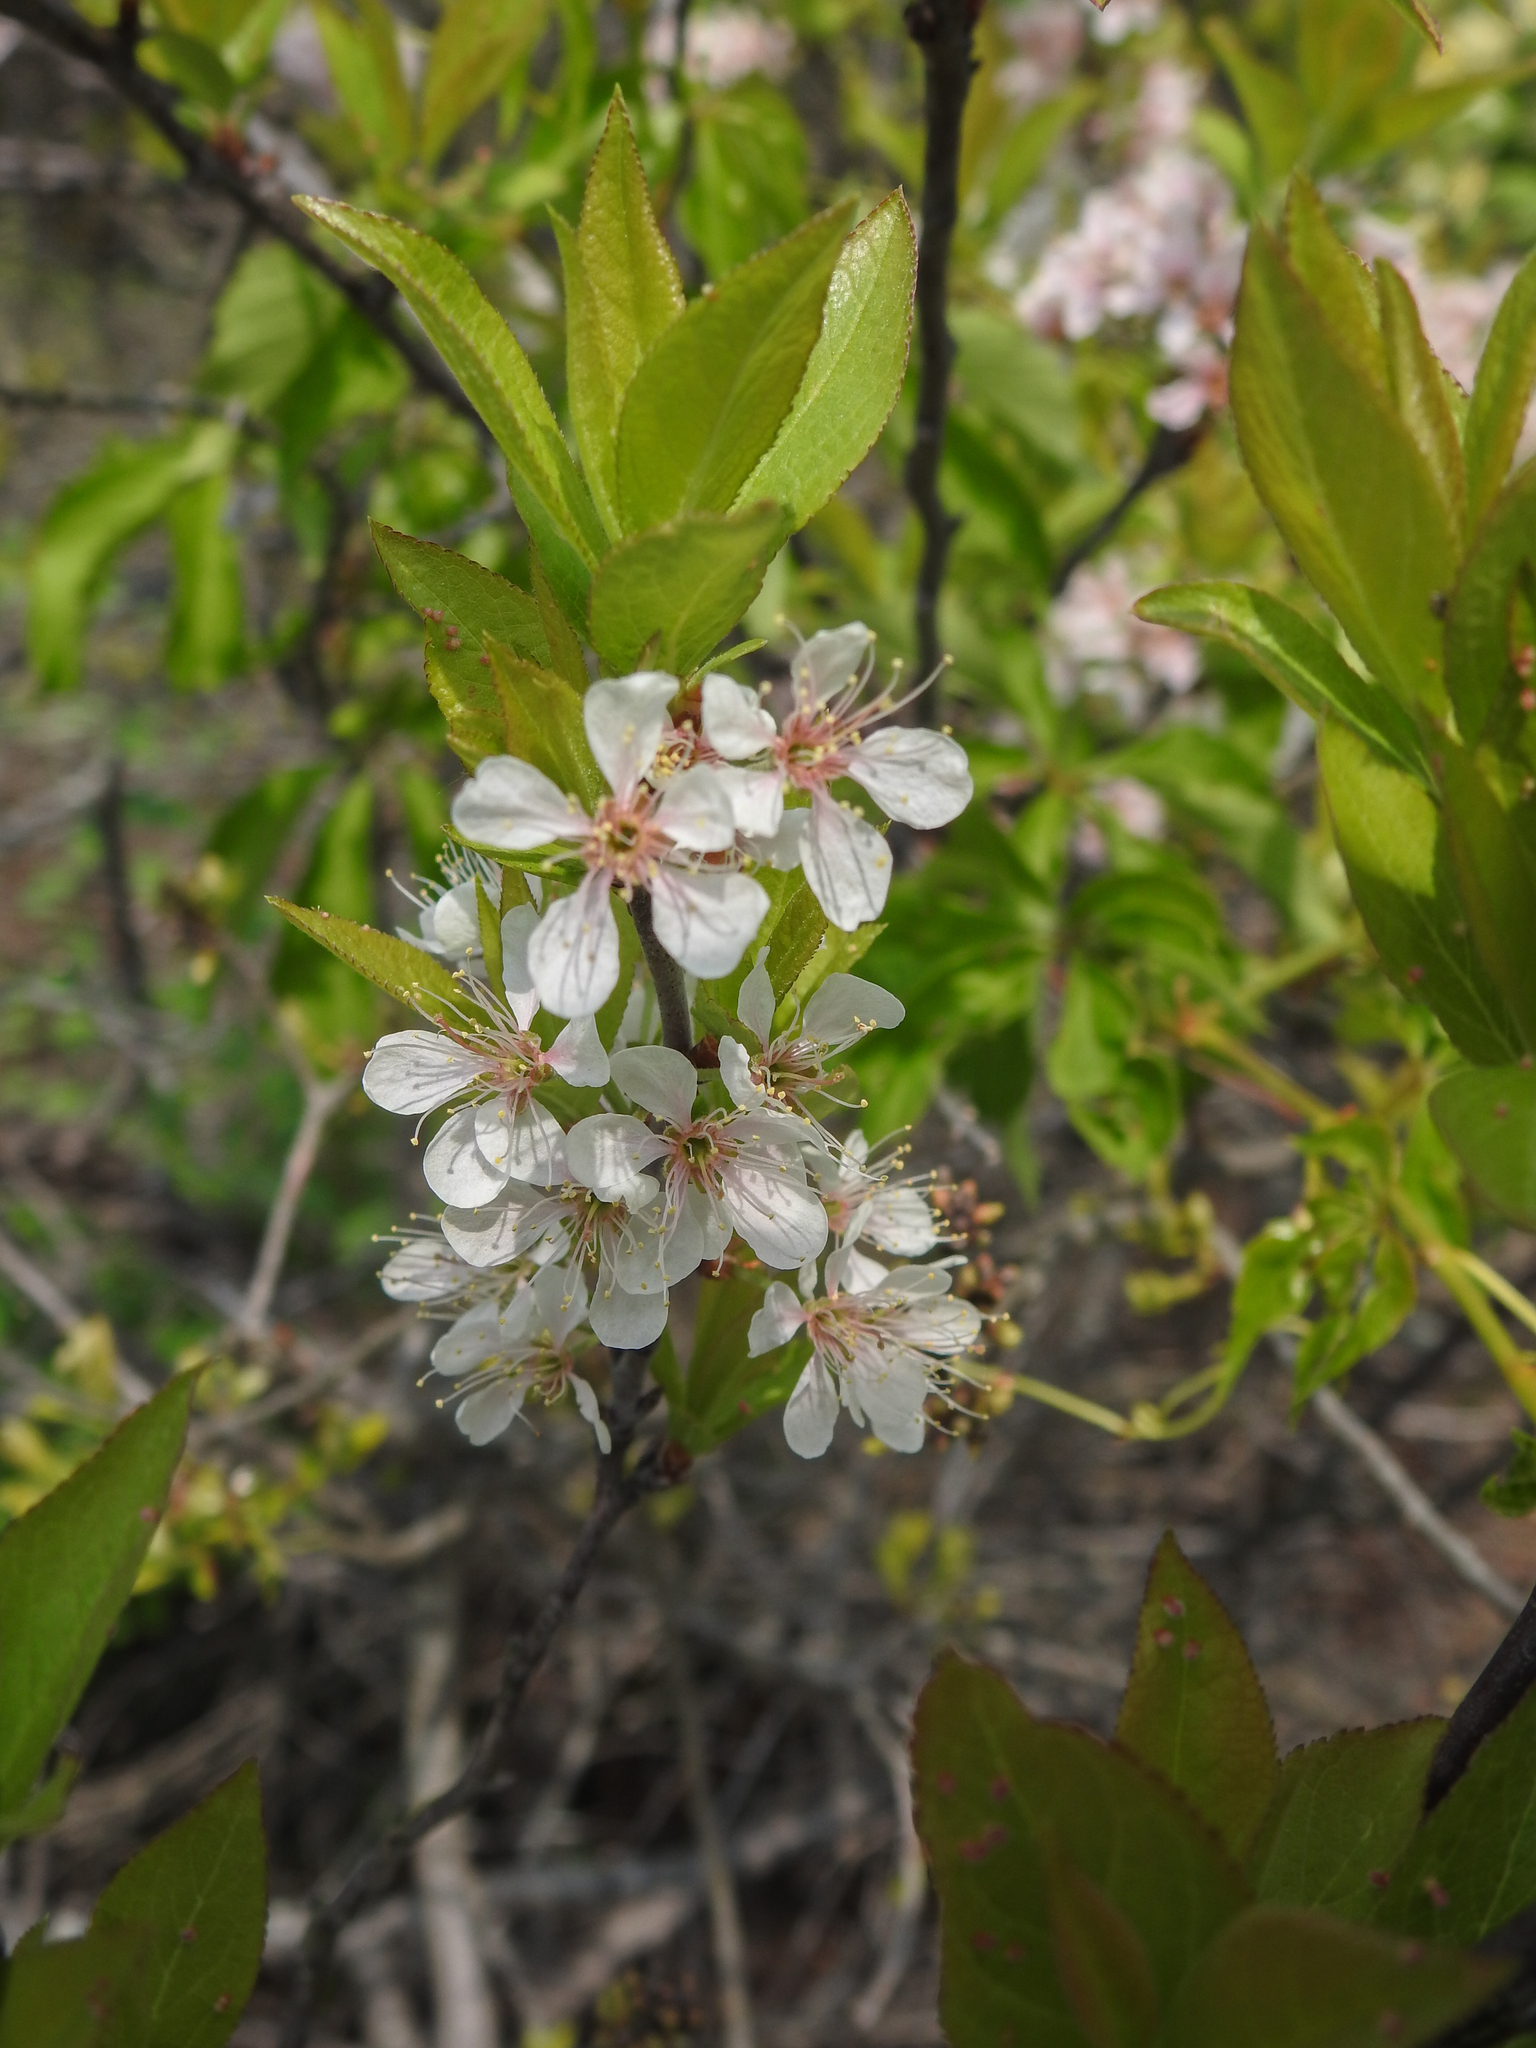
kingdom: Plantae
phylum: Tracheophyta
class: Magnoliopsida
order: Rosales
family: Rosaceae
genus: Prunus
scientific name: Prunus maritima
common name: Beach plum
